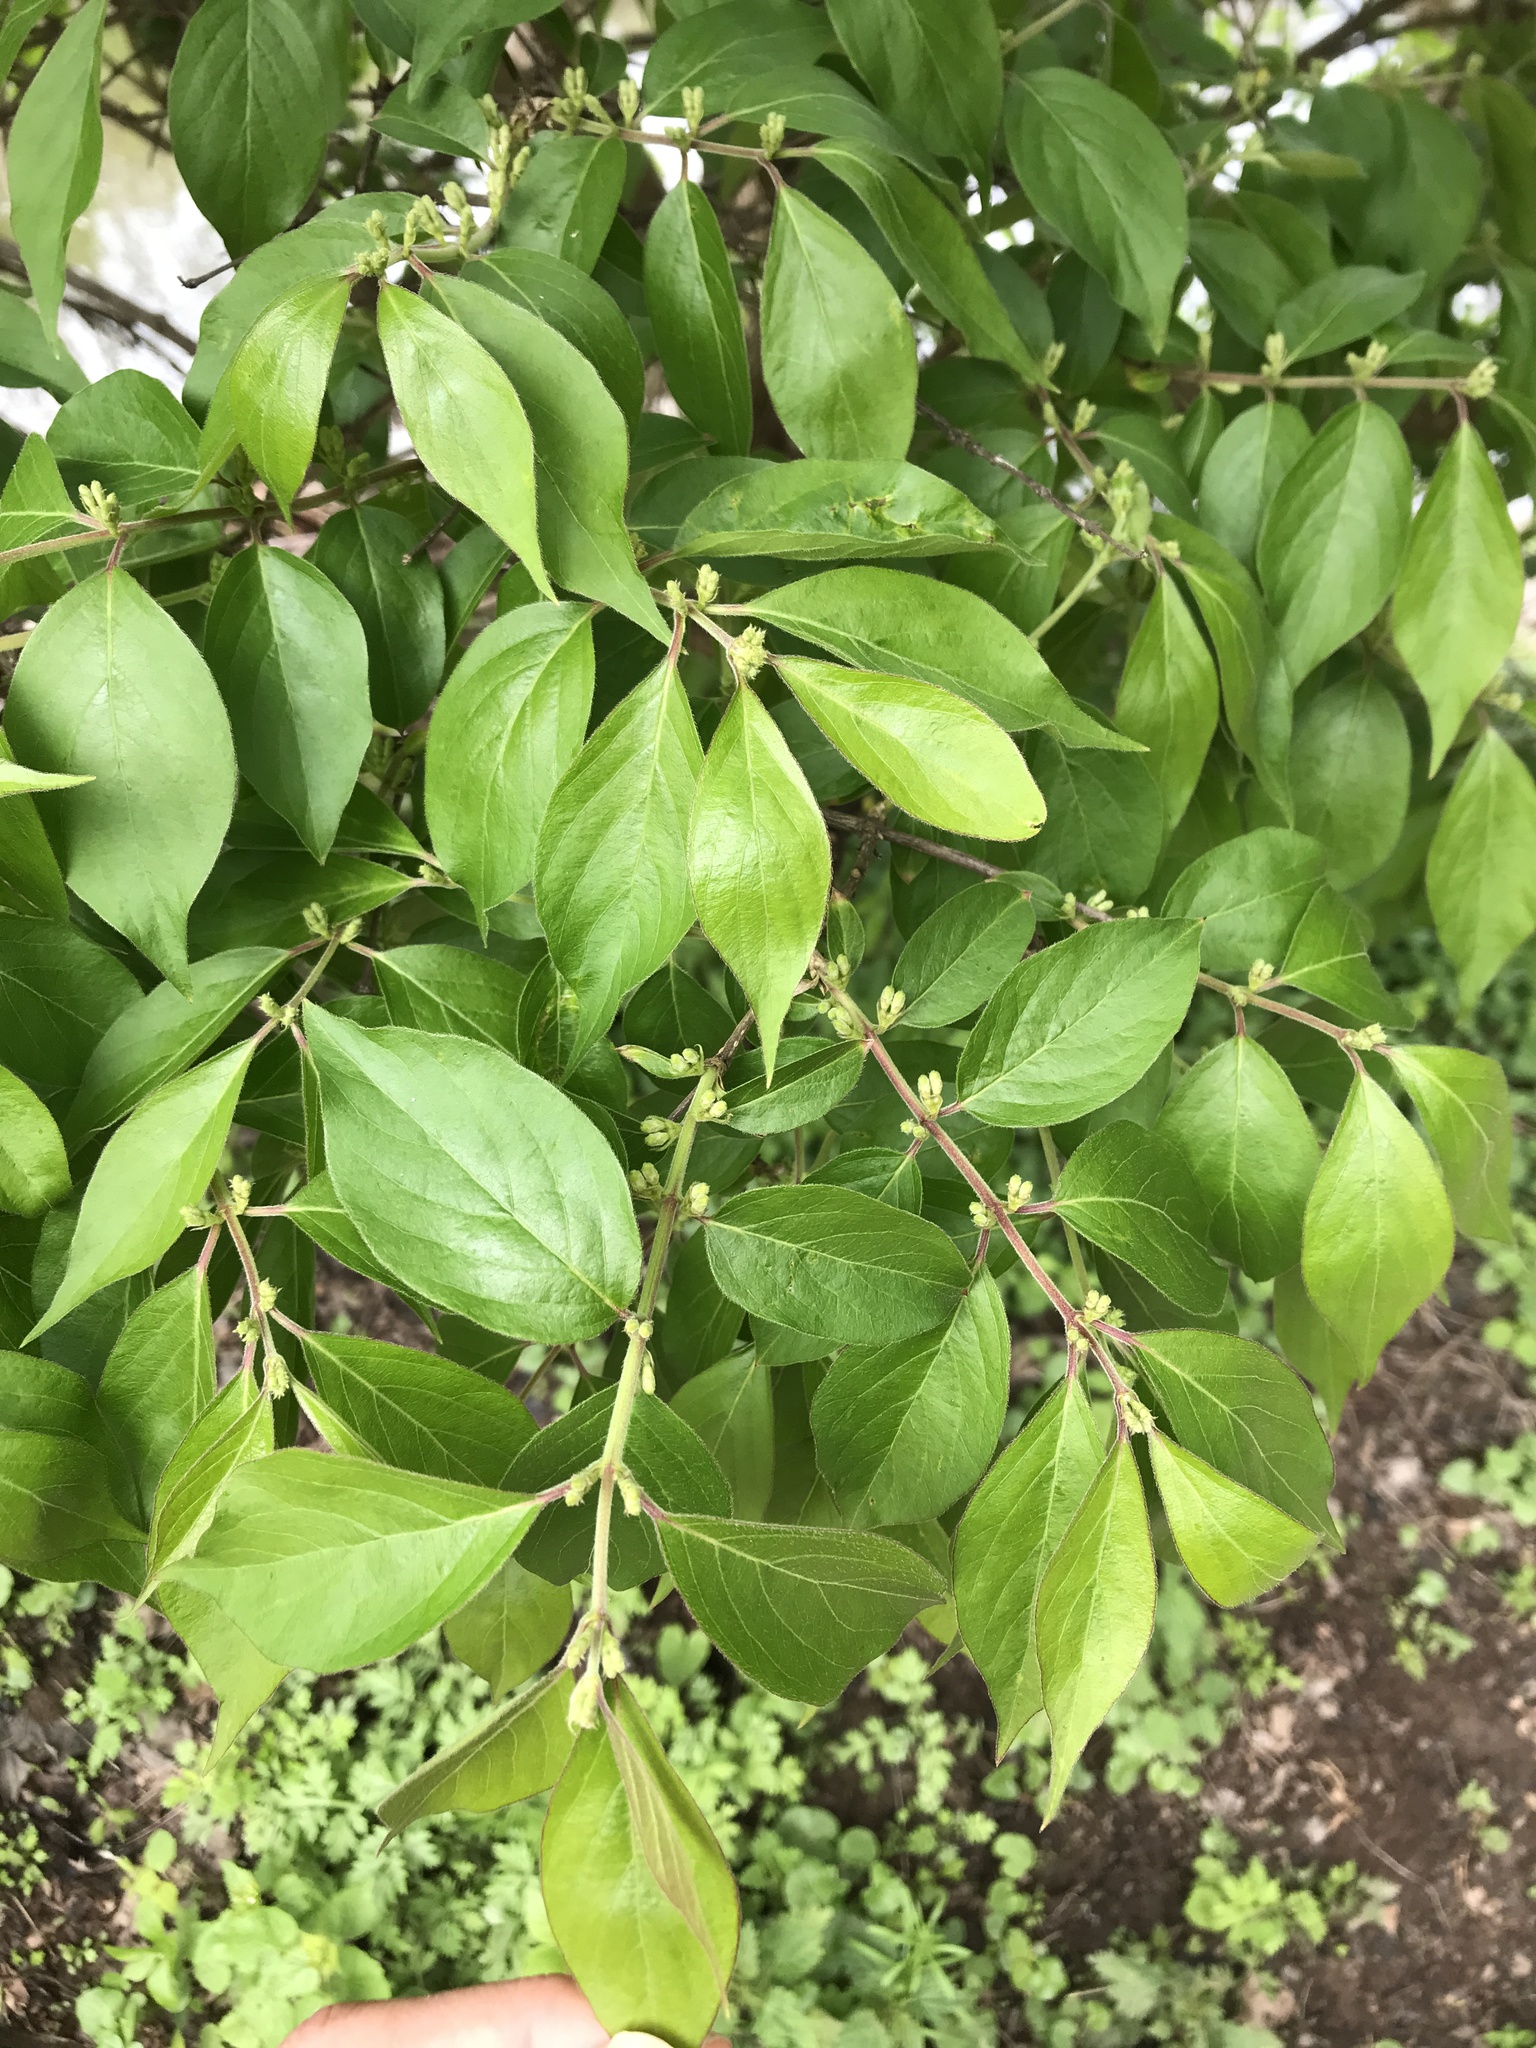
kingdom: Plantae
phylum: Tracheophyta
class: Magnoliopsida
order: Dipsacales
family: Caprifoliaceae
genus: Lonicera
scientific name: Lonicera maackii
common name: Amur honeysuckle
